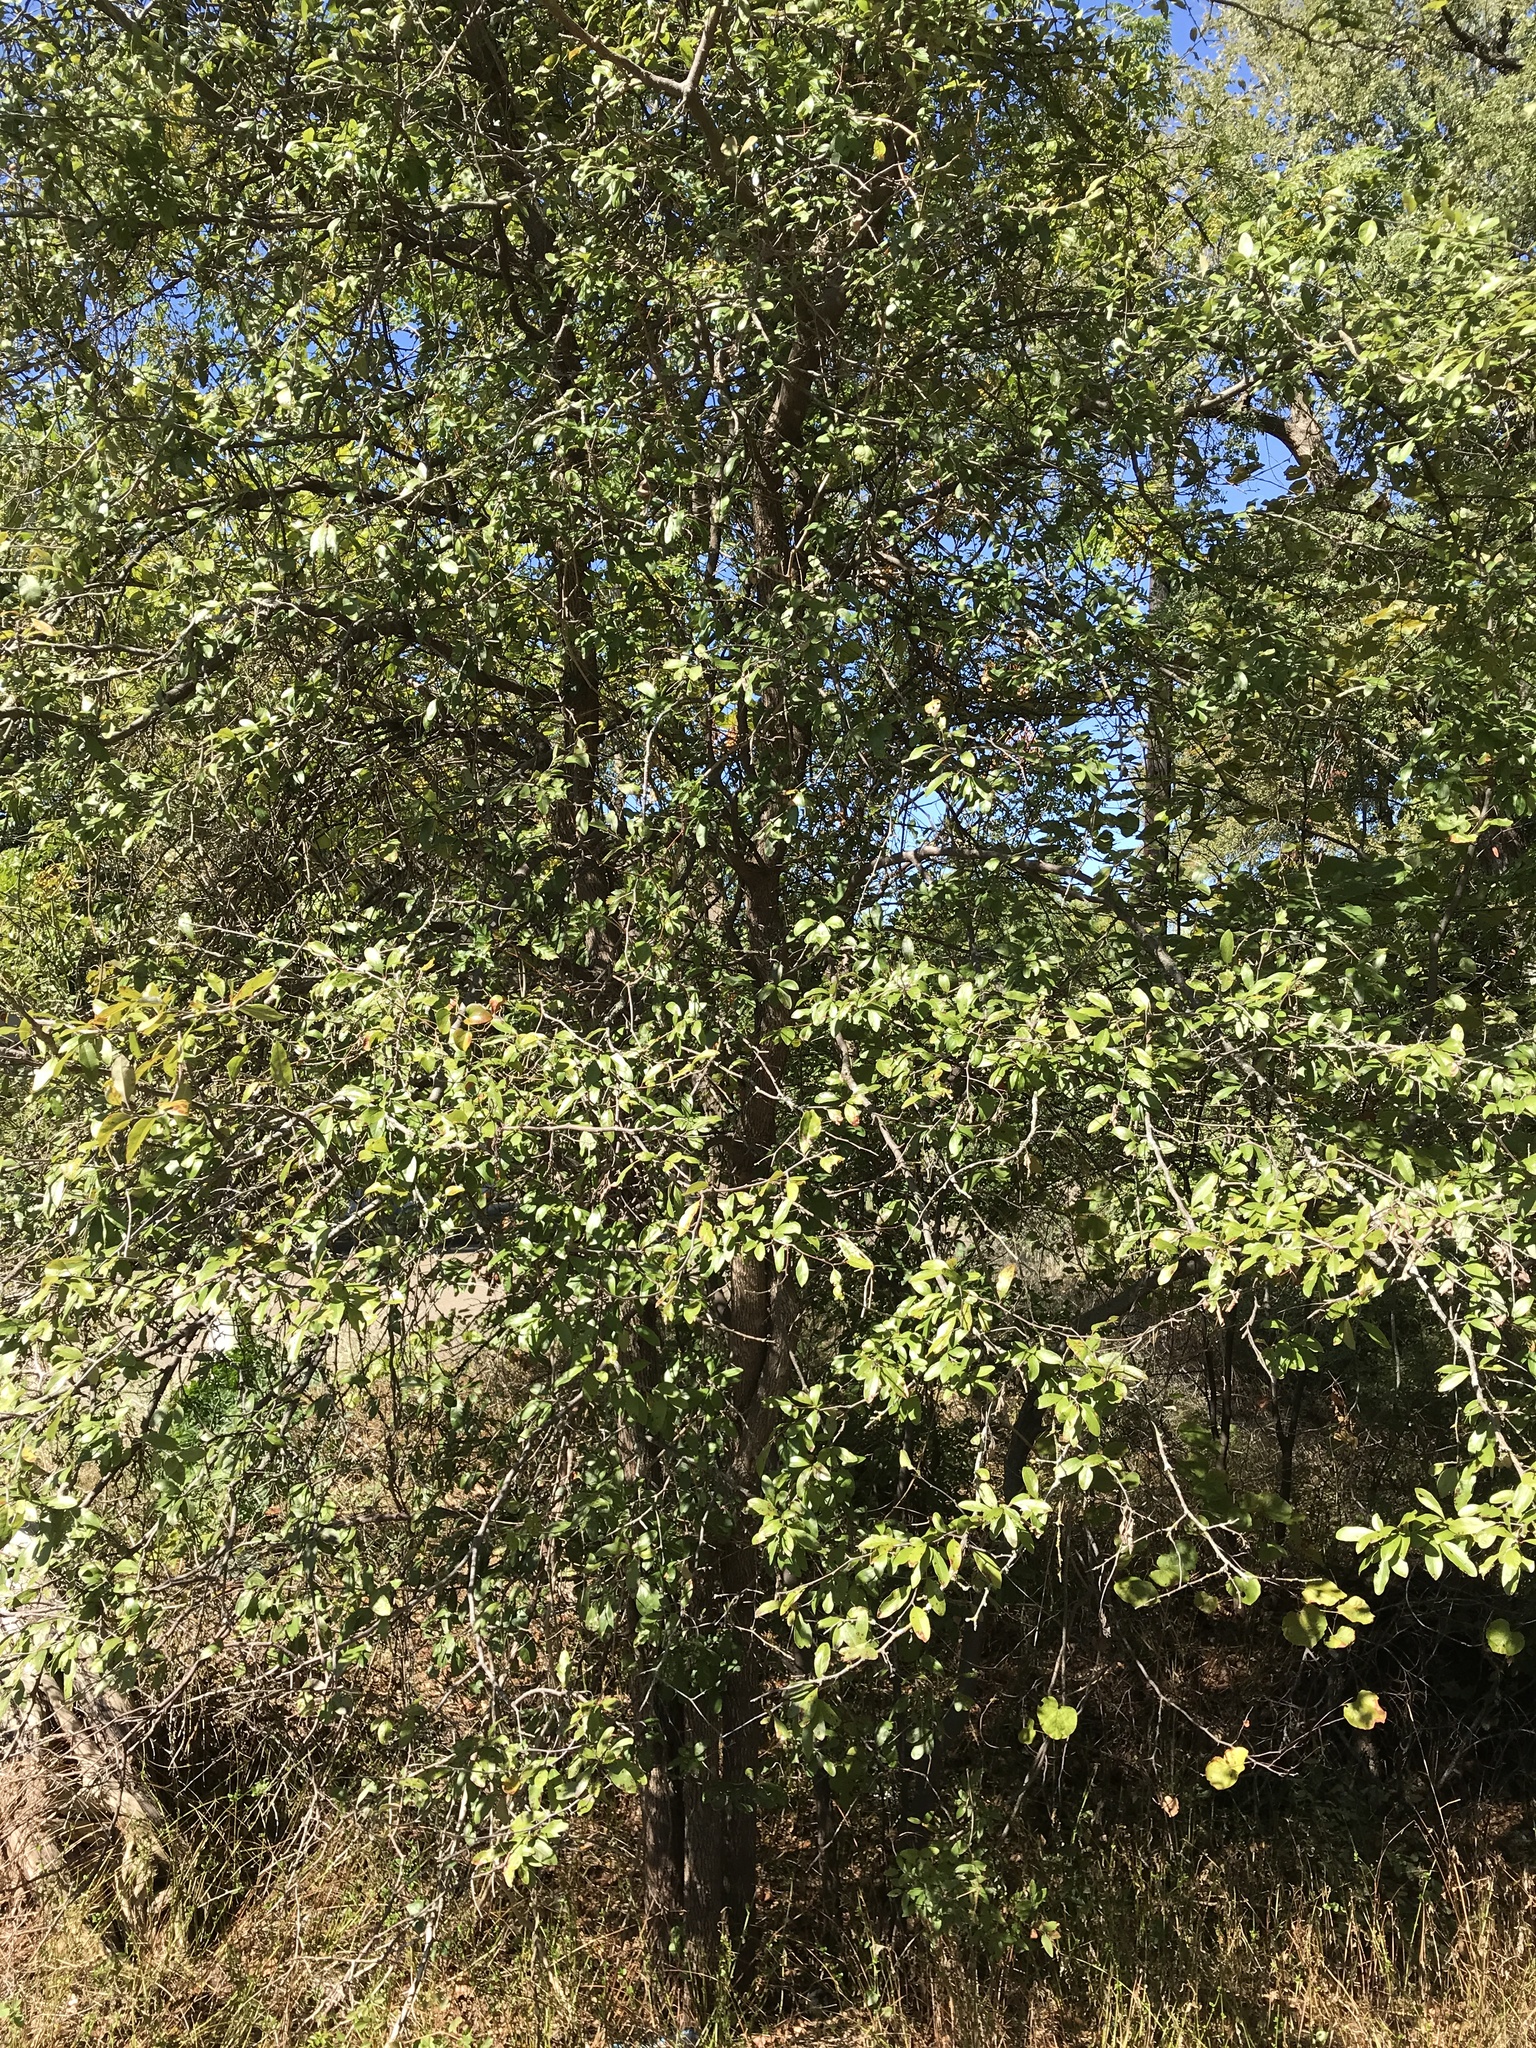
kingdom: Plantae
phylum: Tracheophyta
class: Magnoliopsida
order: Ericales
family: Sapotaceae
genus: Sideroxylon
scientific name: Sideroxylon lanuginosum
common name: Chittamwood
